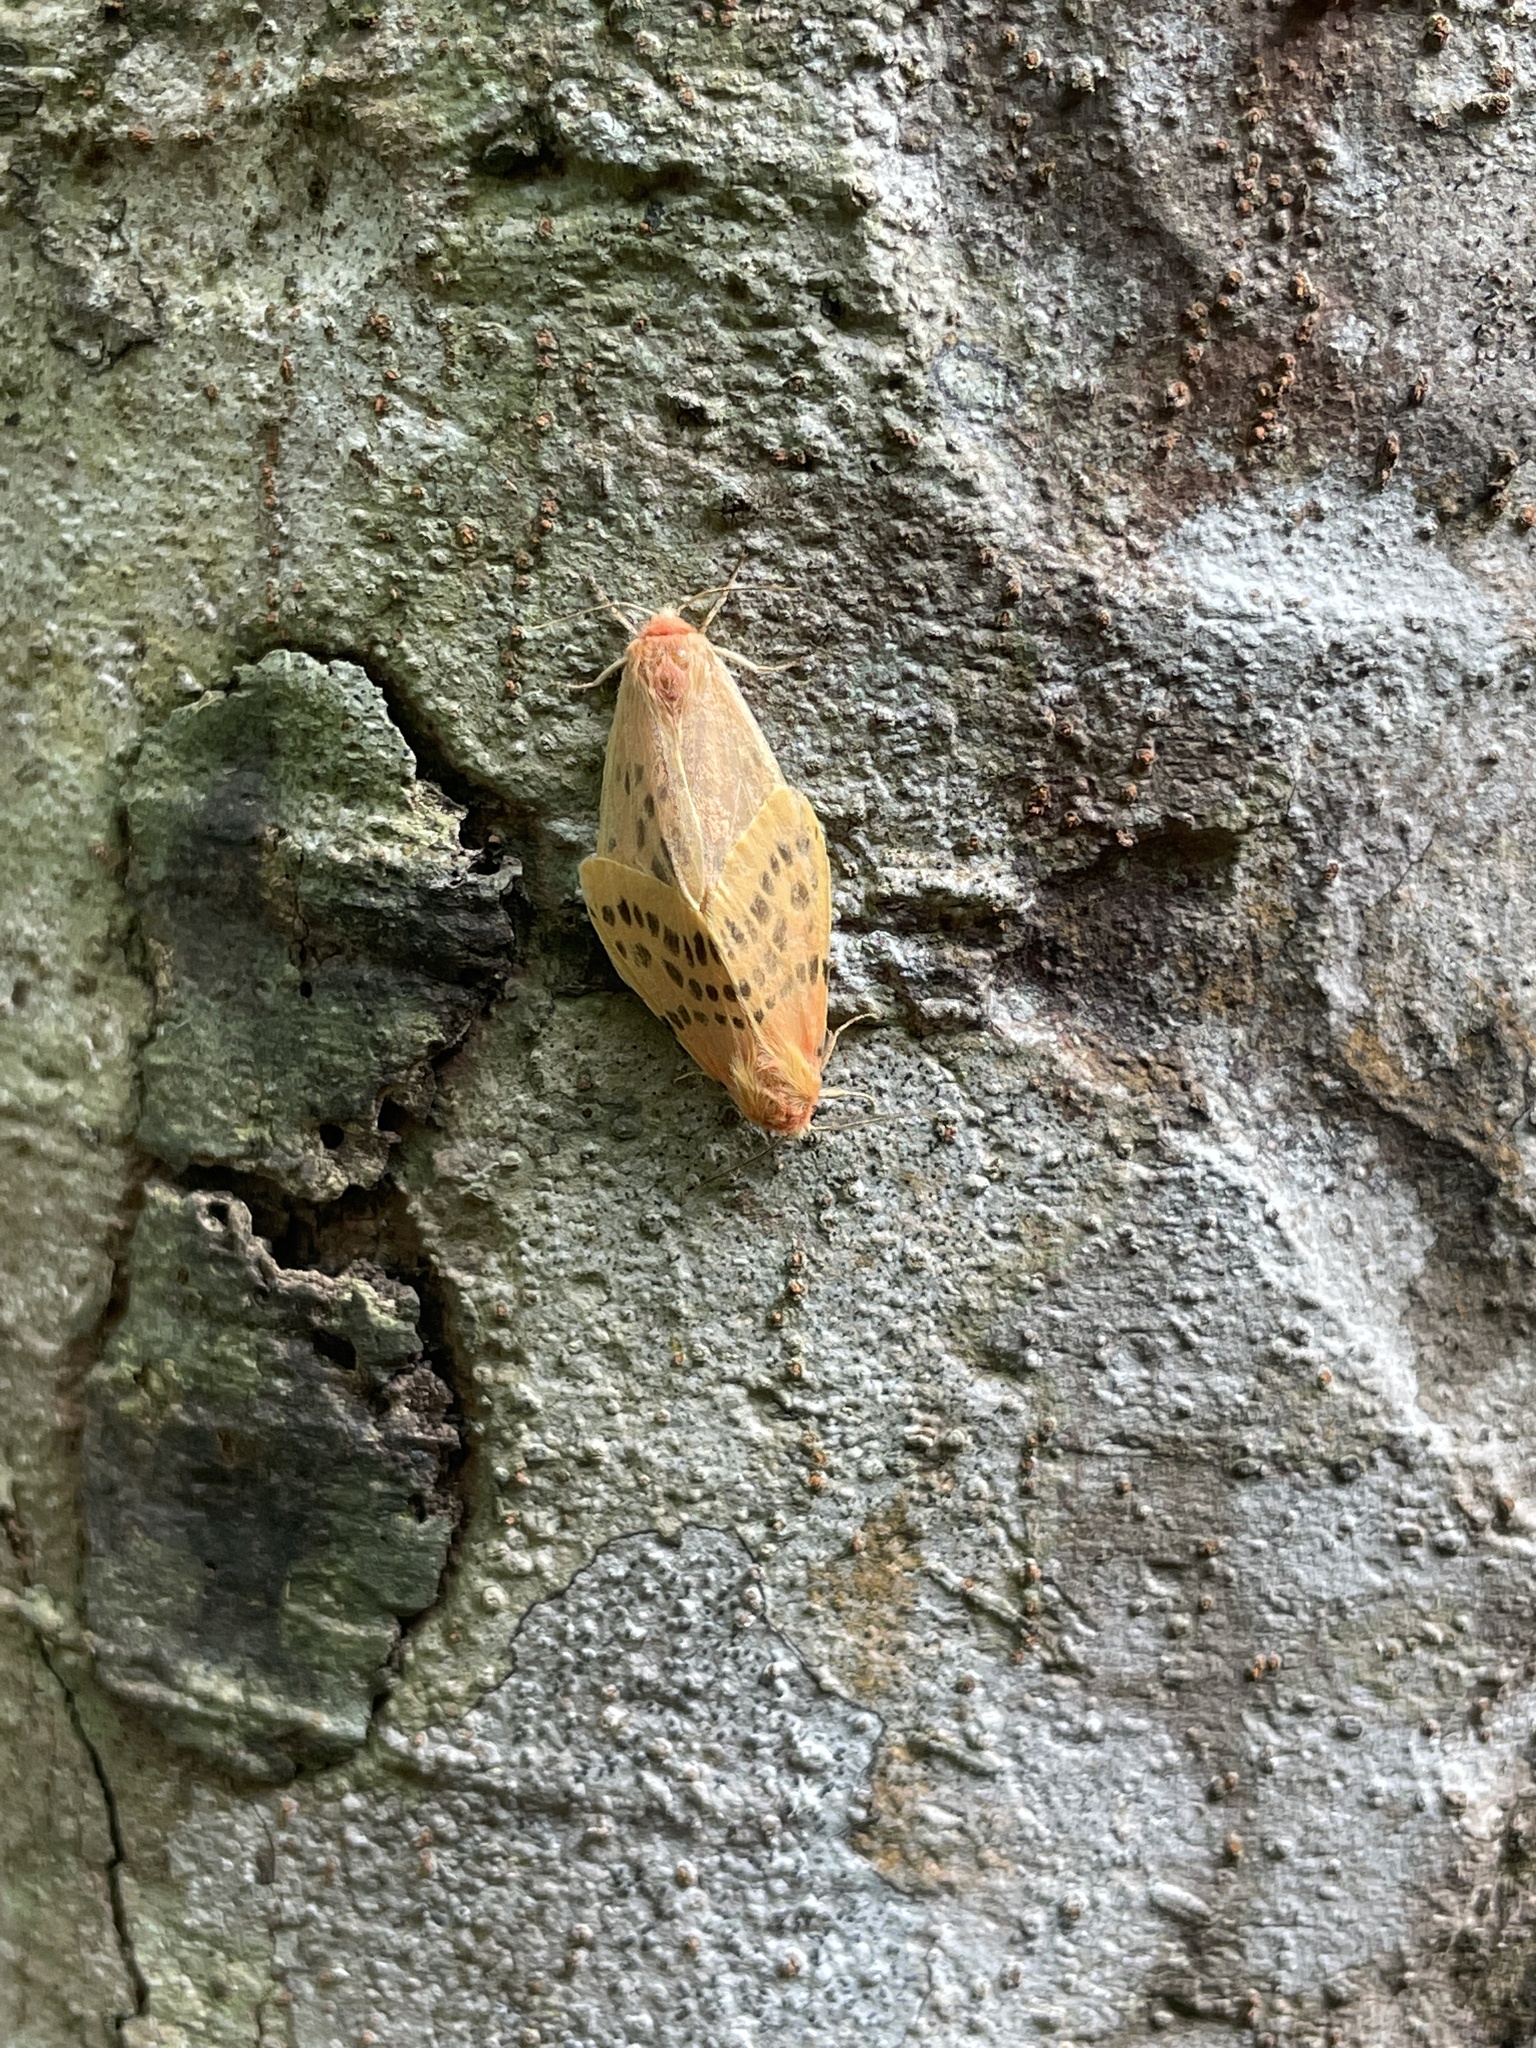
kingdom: Animalia
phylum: Arthropoda
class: Insecta
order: Lepidoptera
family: Erebidae
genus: Lemyra
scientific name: Lemyra alikangensis
